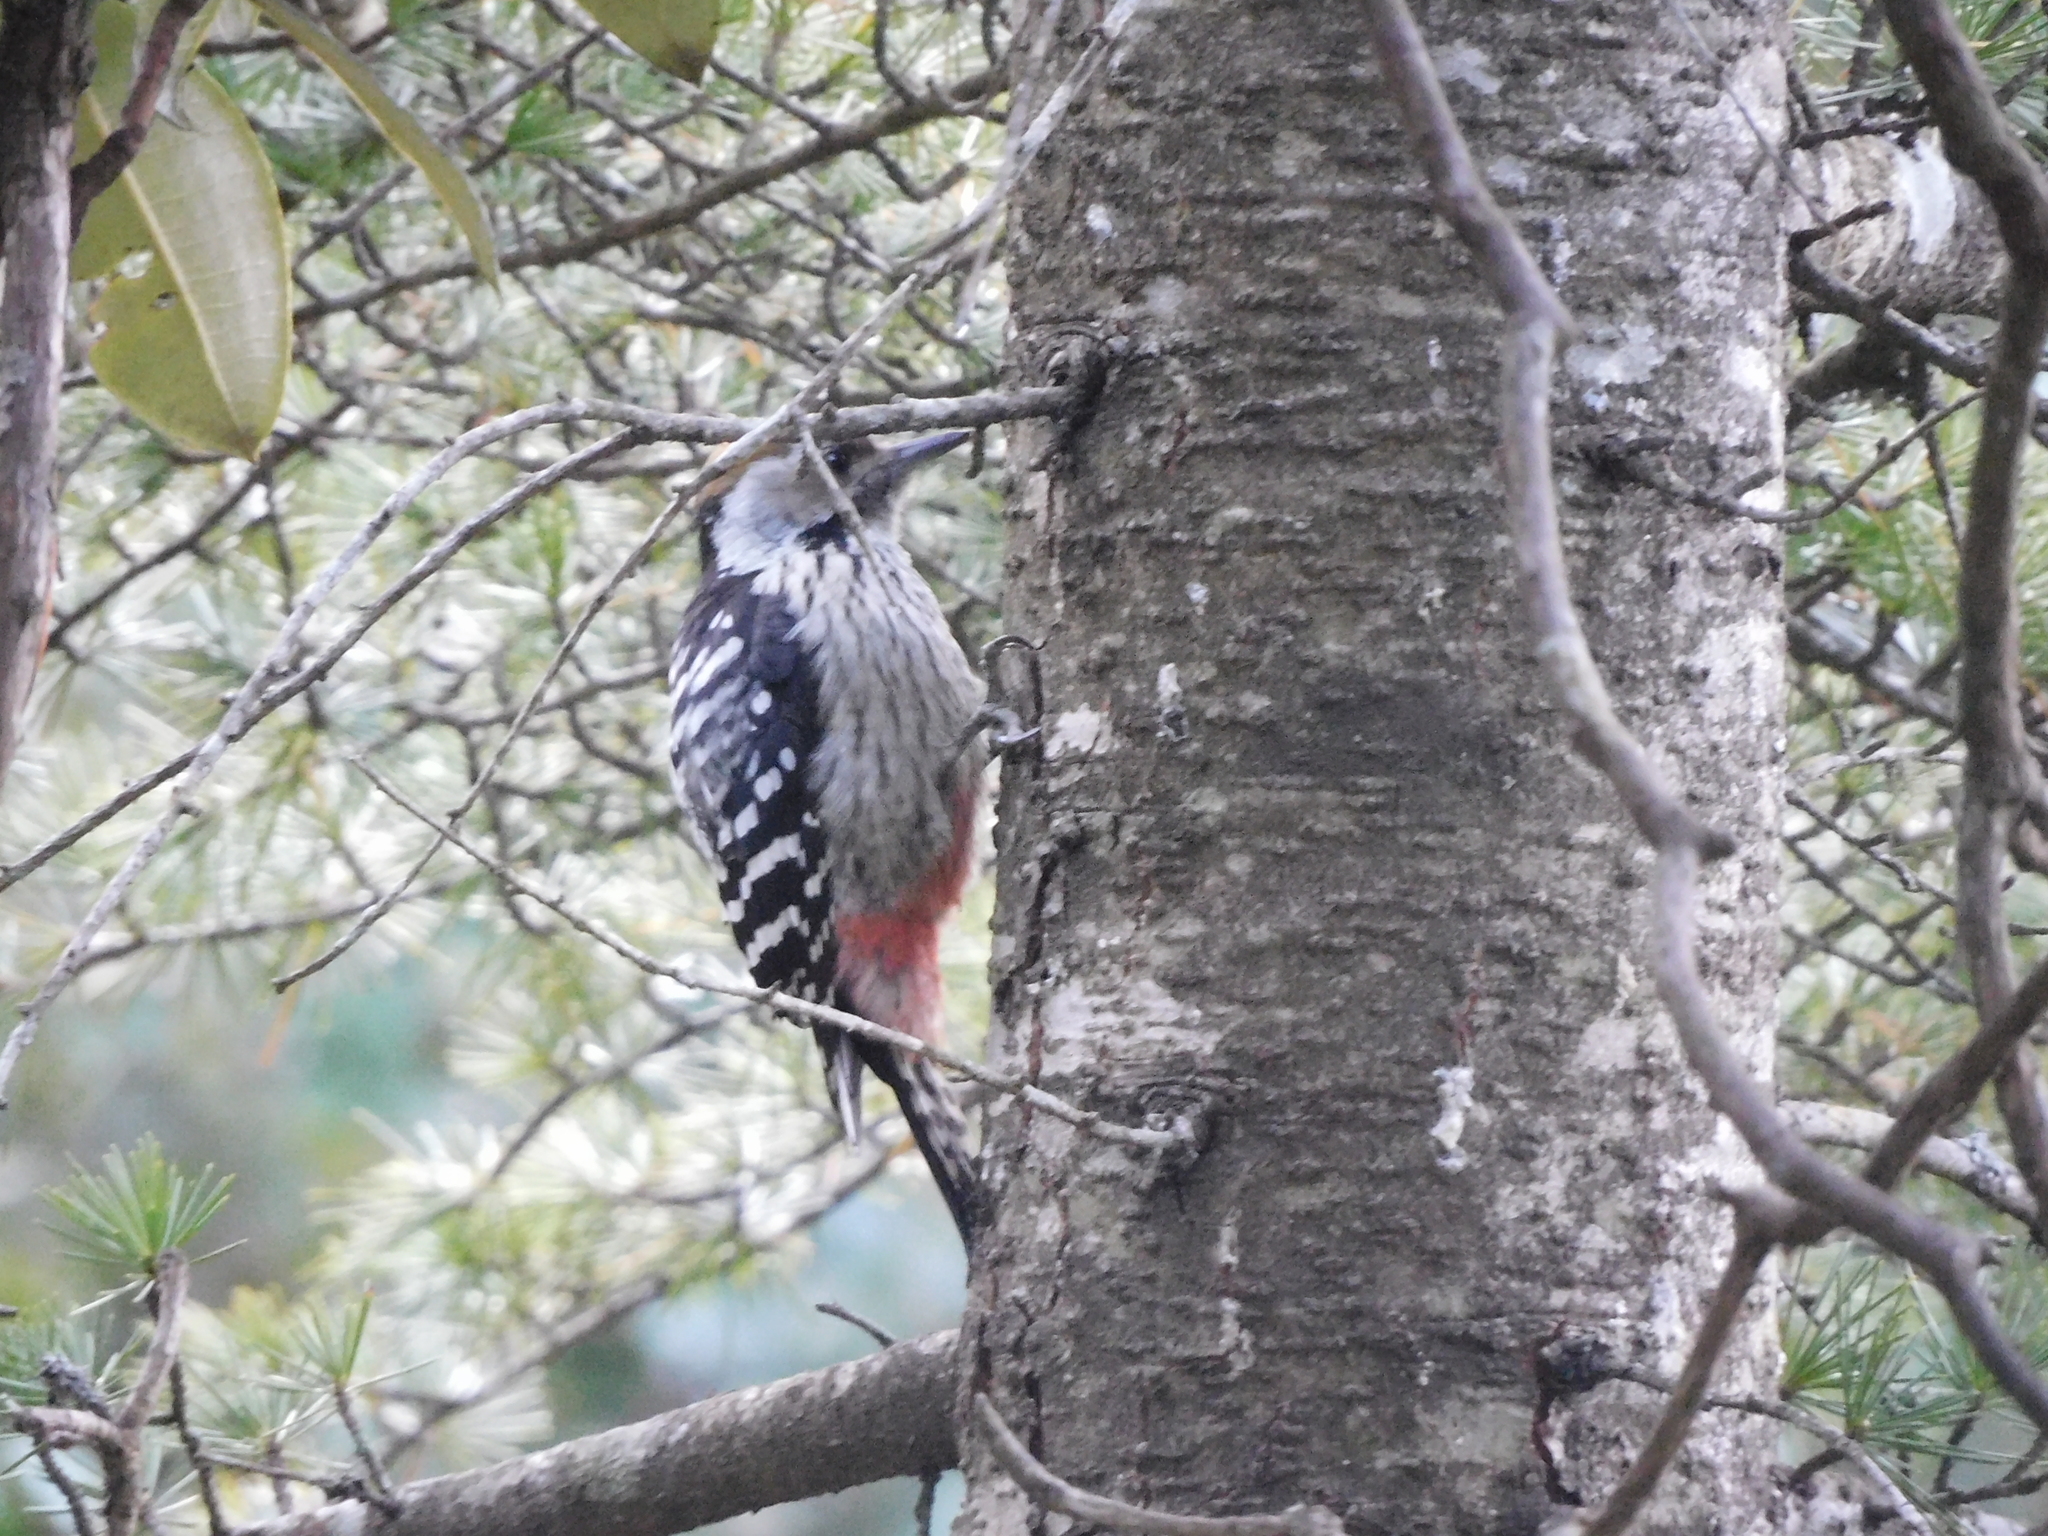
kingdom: Animalia
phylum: Chordata
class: Aves
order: Piciformes
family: Picidae
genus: Dendrocoptes
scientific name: Dendrocoptes auriceps
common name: Brown-fronted woodpecker
